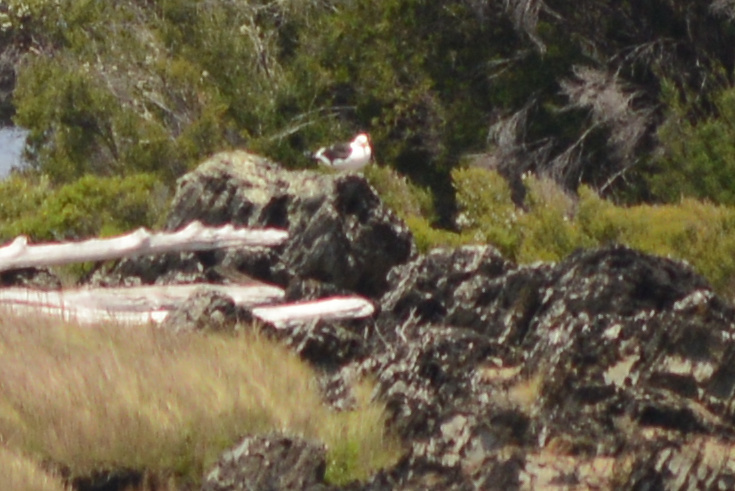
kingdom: Animalia
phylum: Chordata
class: Aves
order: Charadriiformes
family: Laridae
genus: Larus
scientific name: Larus dominicanus
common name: Kelp gull
